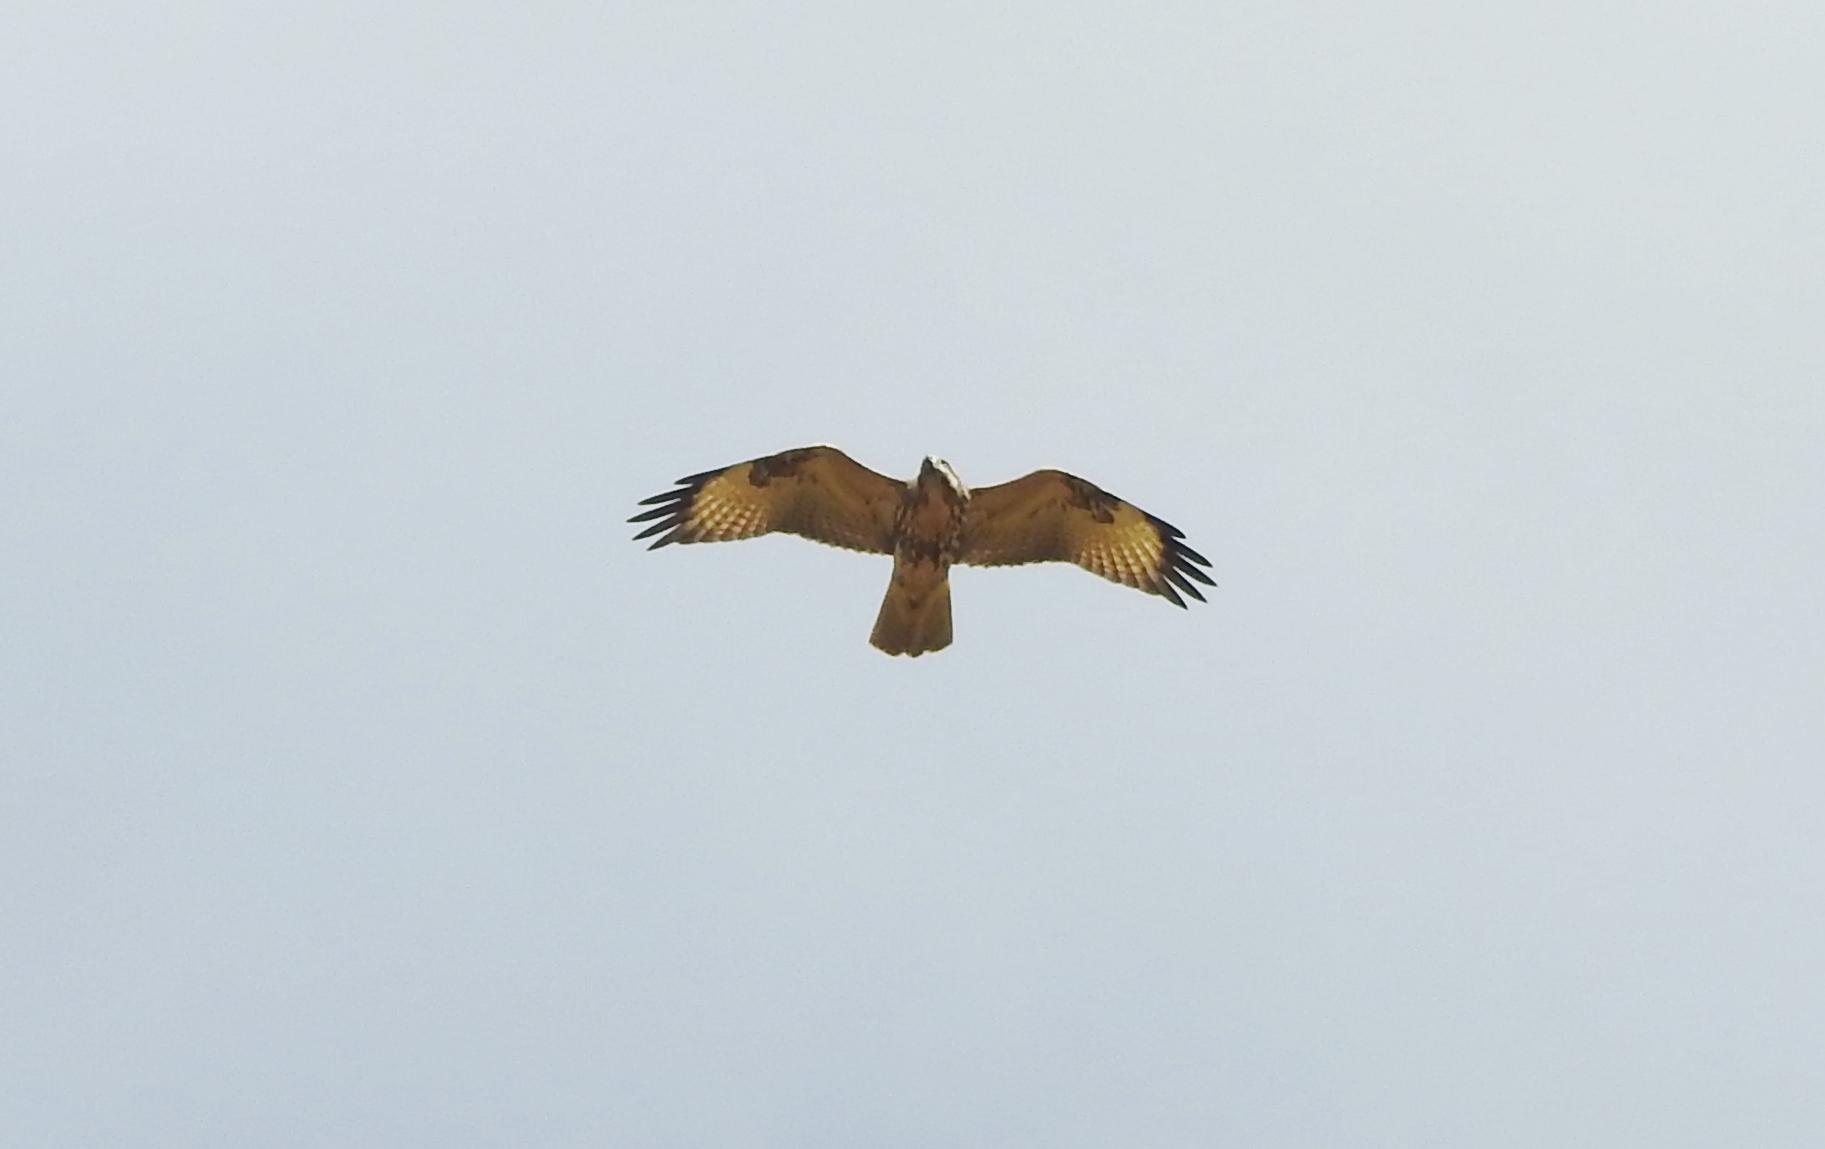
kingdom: Animalia
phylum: Chordata
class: Aves
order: Accipitriformes
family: Accipitridae
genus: Buteo
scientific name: Buteo hemilasius
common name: Upland buzzard
